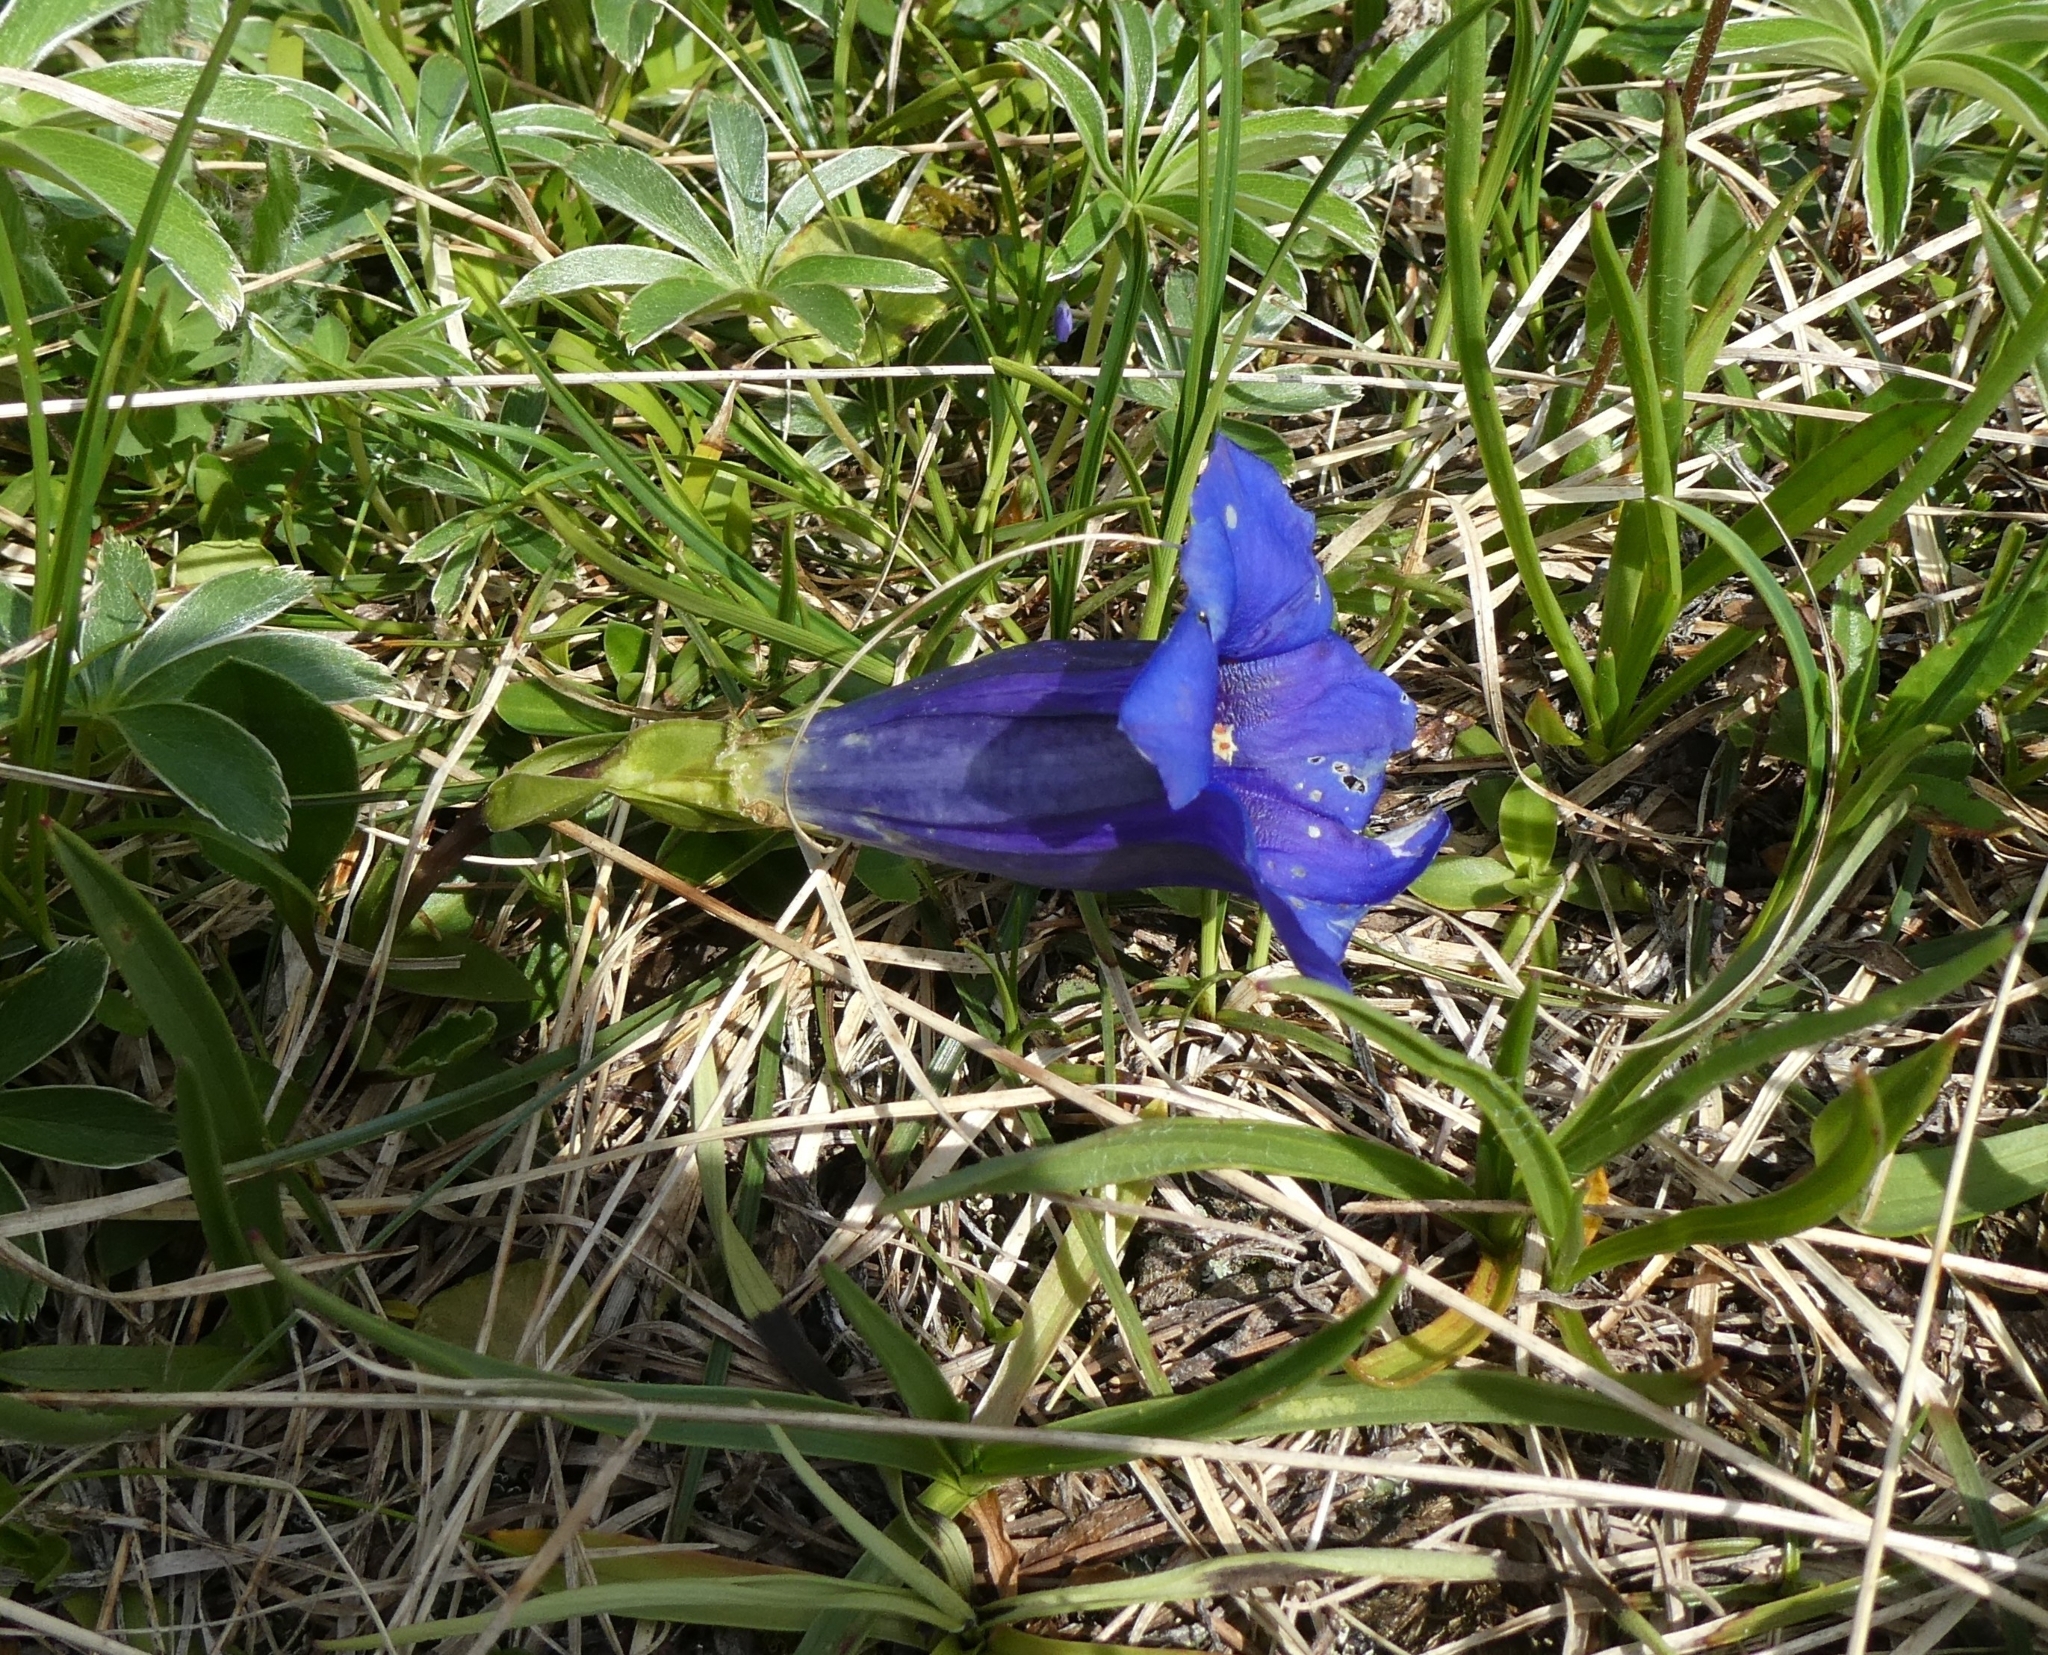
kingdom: Plantae
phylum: Tracheophyta
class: Magnoliopsida
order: Gentianales
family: Gentianaceae
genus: Gentiana
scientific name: Gentiana clusii
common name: Trumpet gentian
